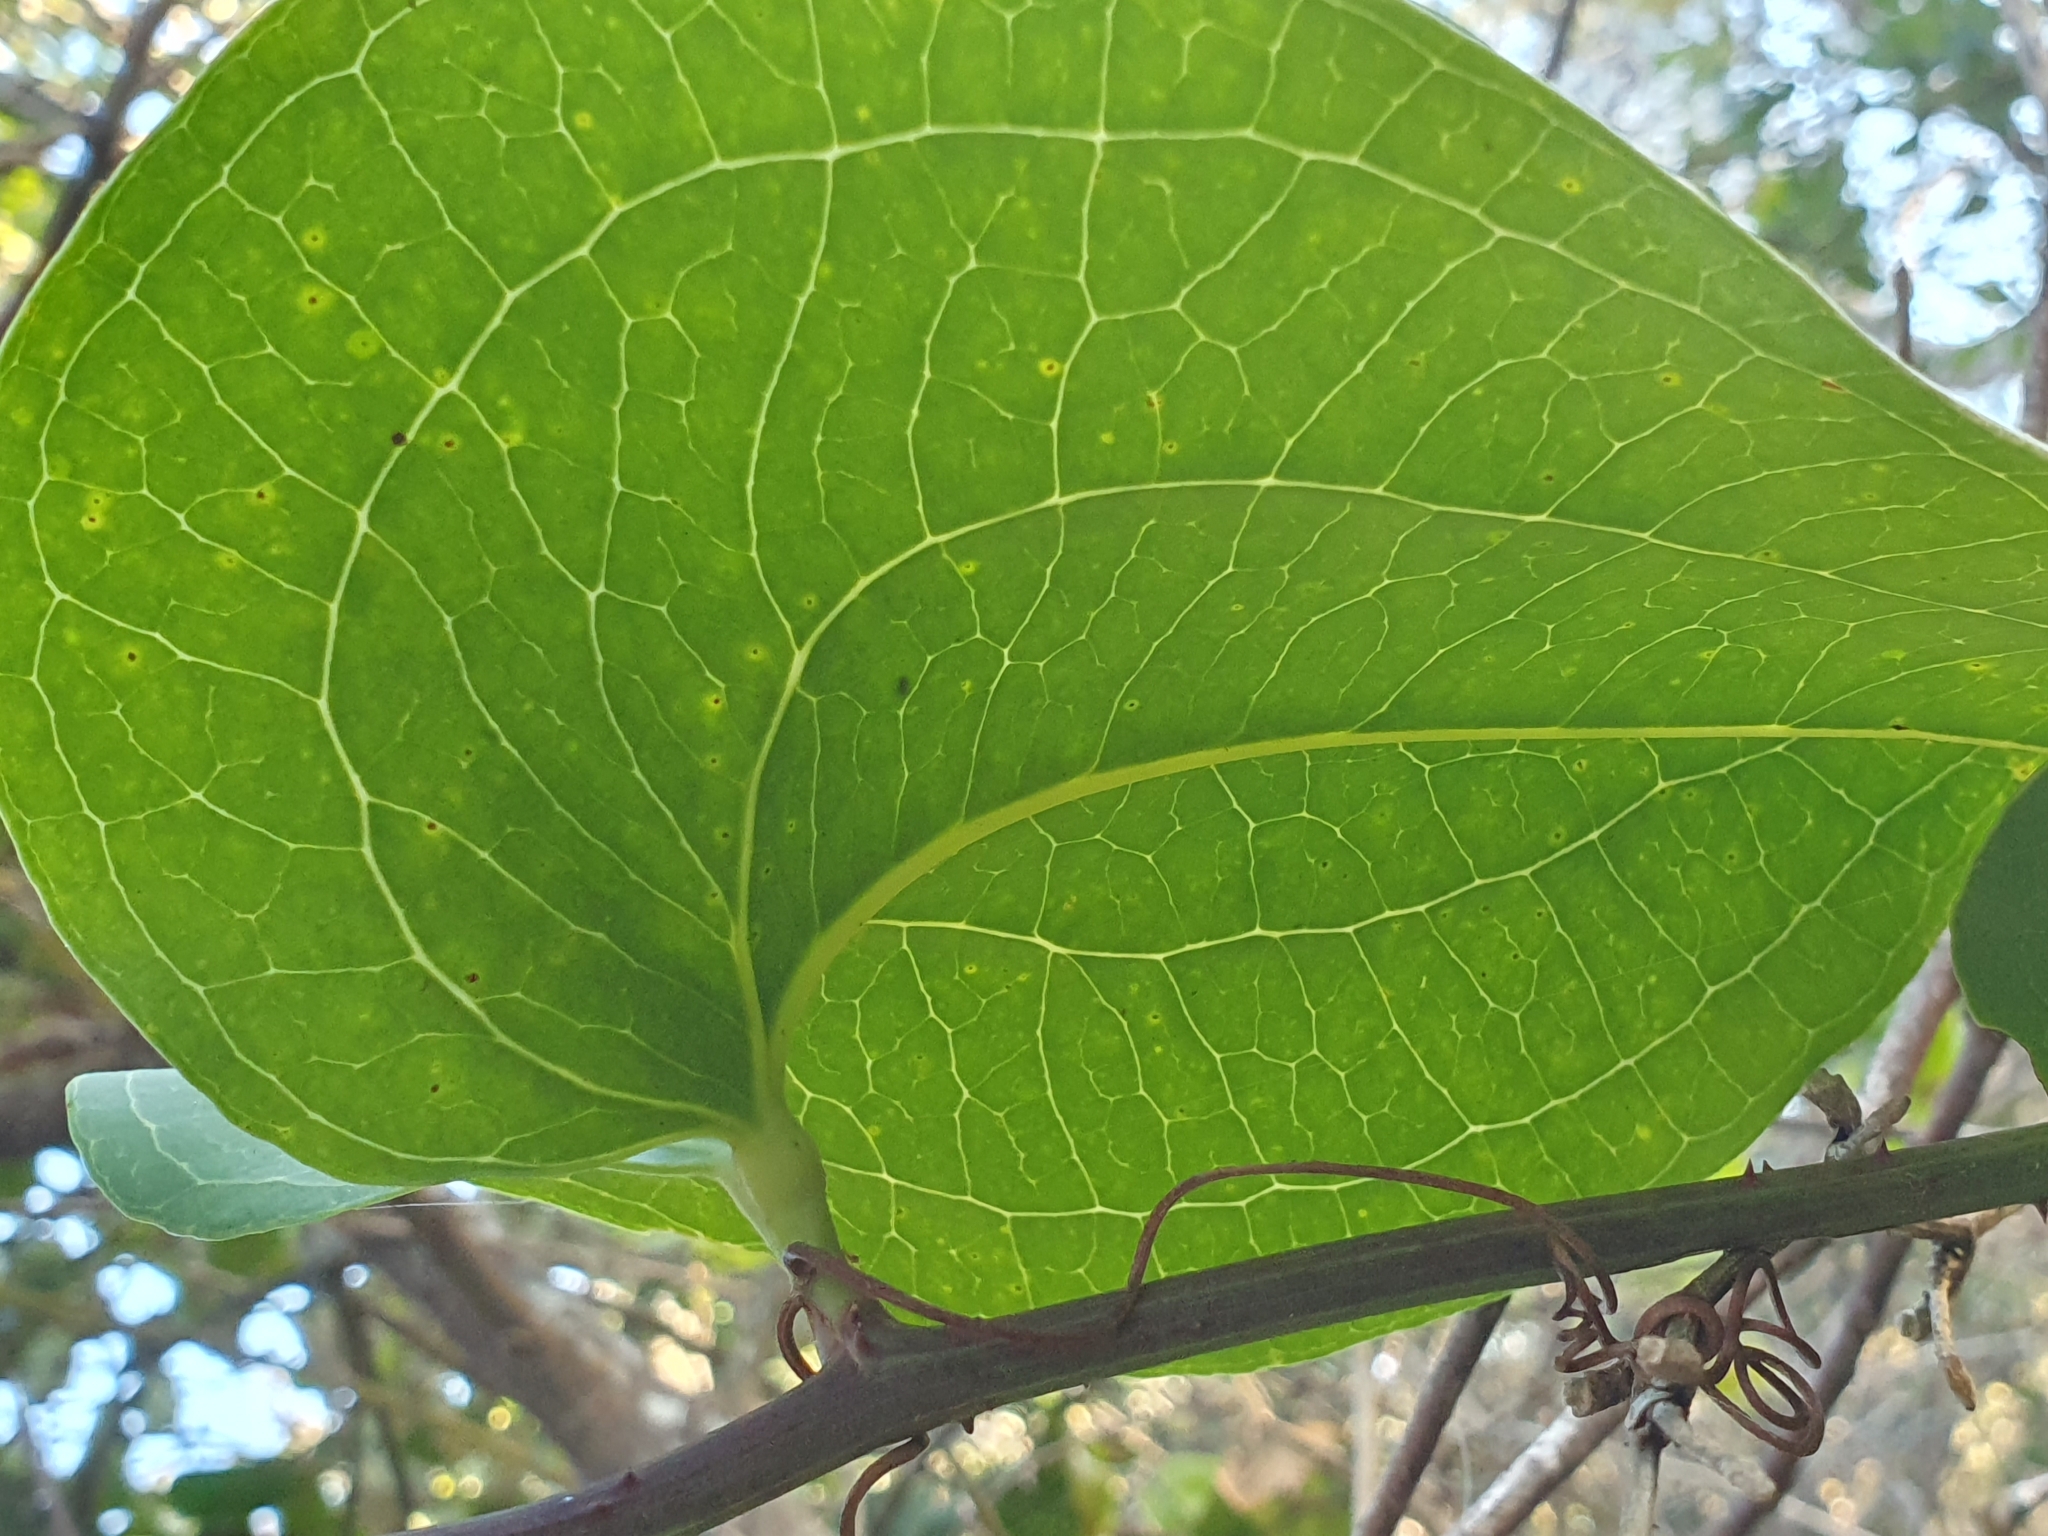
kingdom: Plantae
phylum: Tracheophyta
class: Liliopsida
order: Liliales
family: Smilacaceae
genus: Smilax
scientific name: Smilax australis
